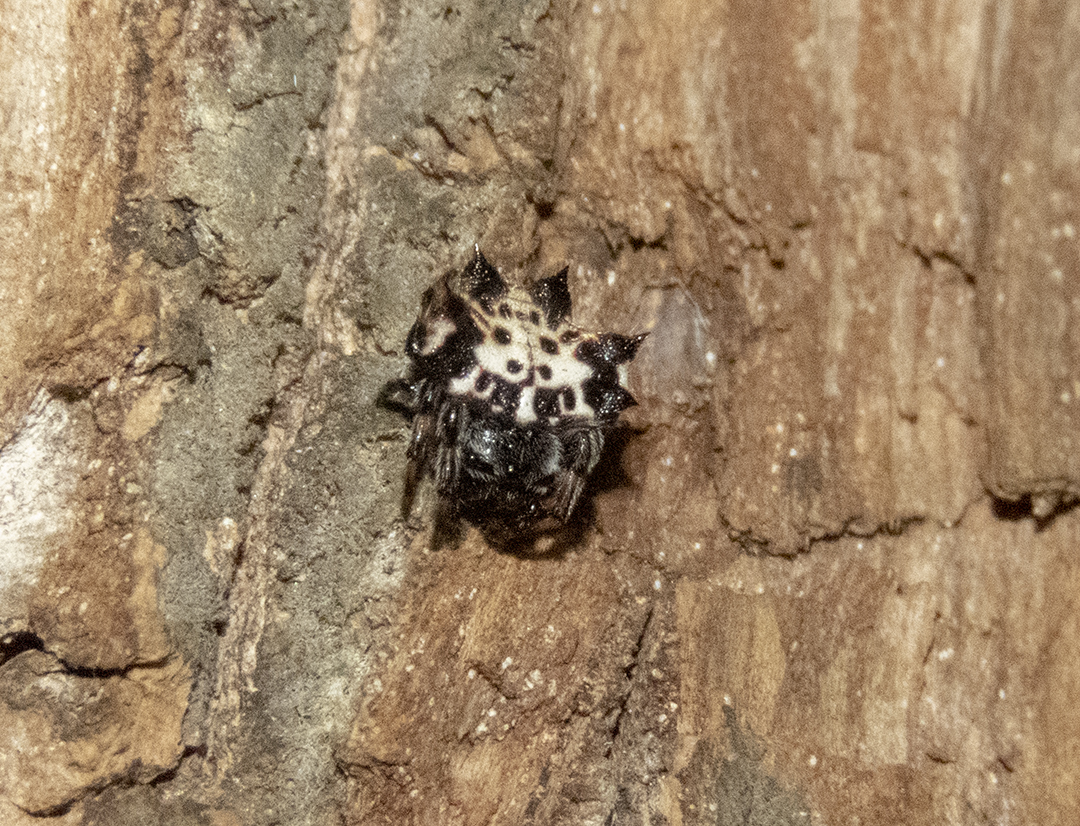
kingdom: Animalia
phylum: Arthropoda
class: Arachnida
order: Araneae
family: Araneidae
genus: Gasteracantha
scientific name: Gasteracantha kuhli
